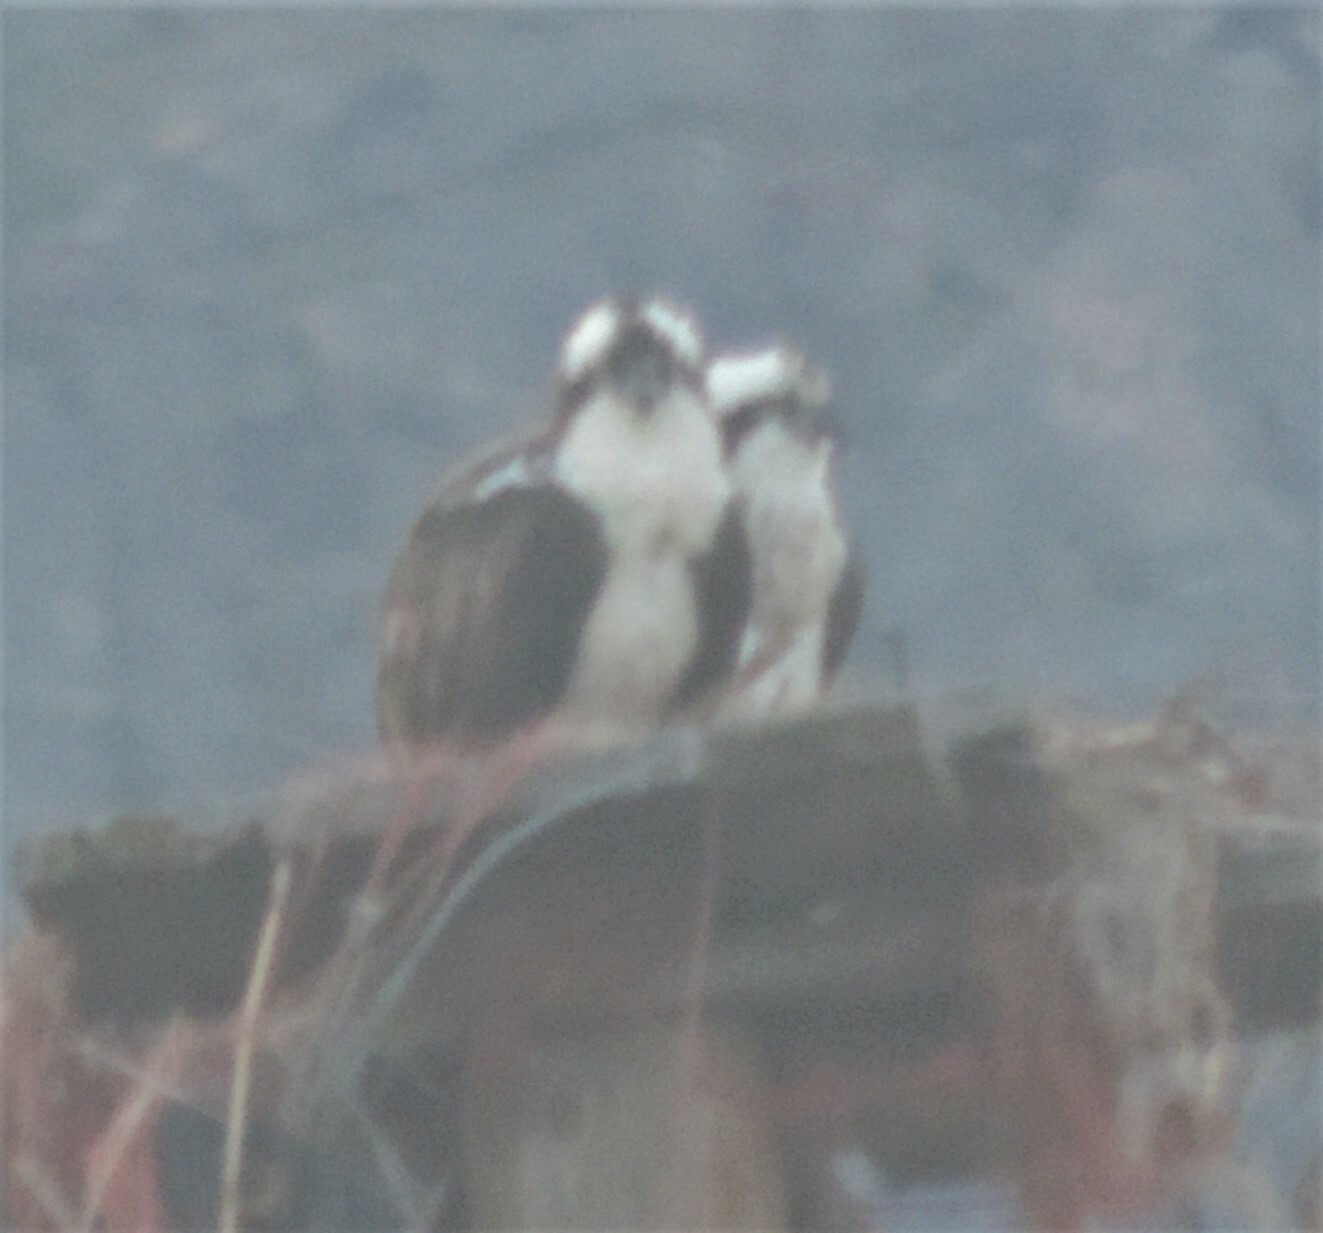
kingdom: Animalia
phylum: Chordata
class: Aves
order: Accipitriformes
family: Pandionidae
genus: Pandion
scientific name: Pandion haliaetus
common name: Osprey
